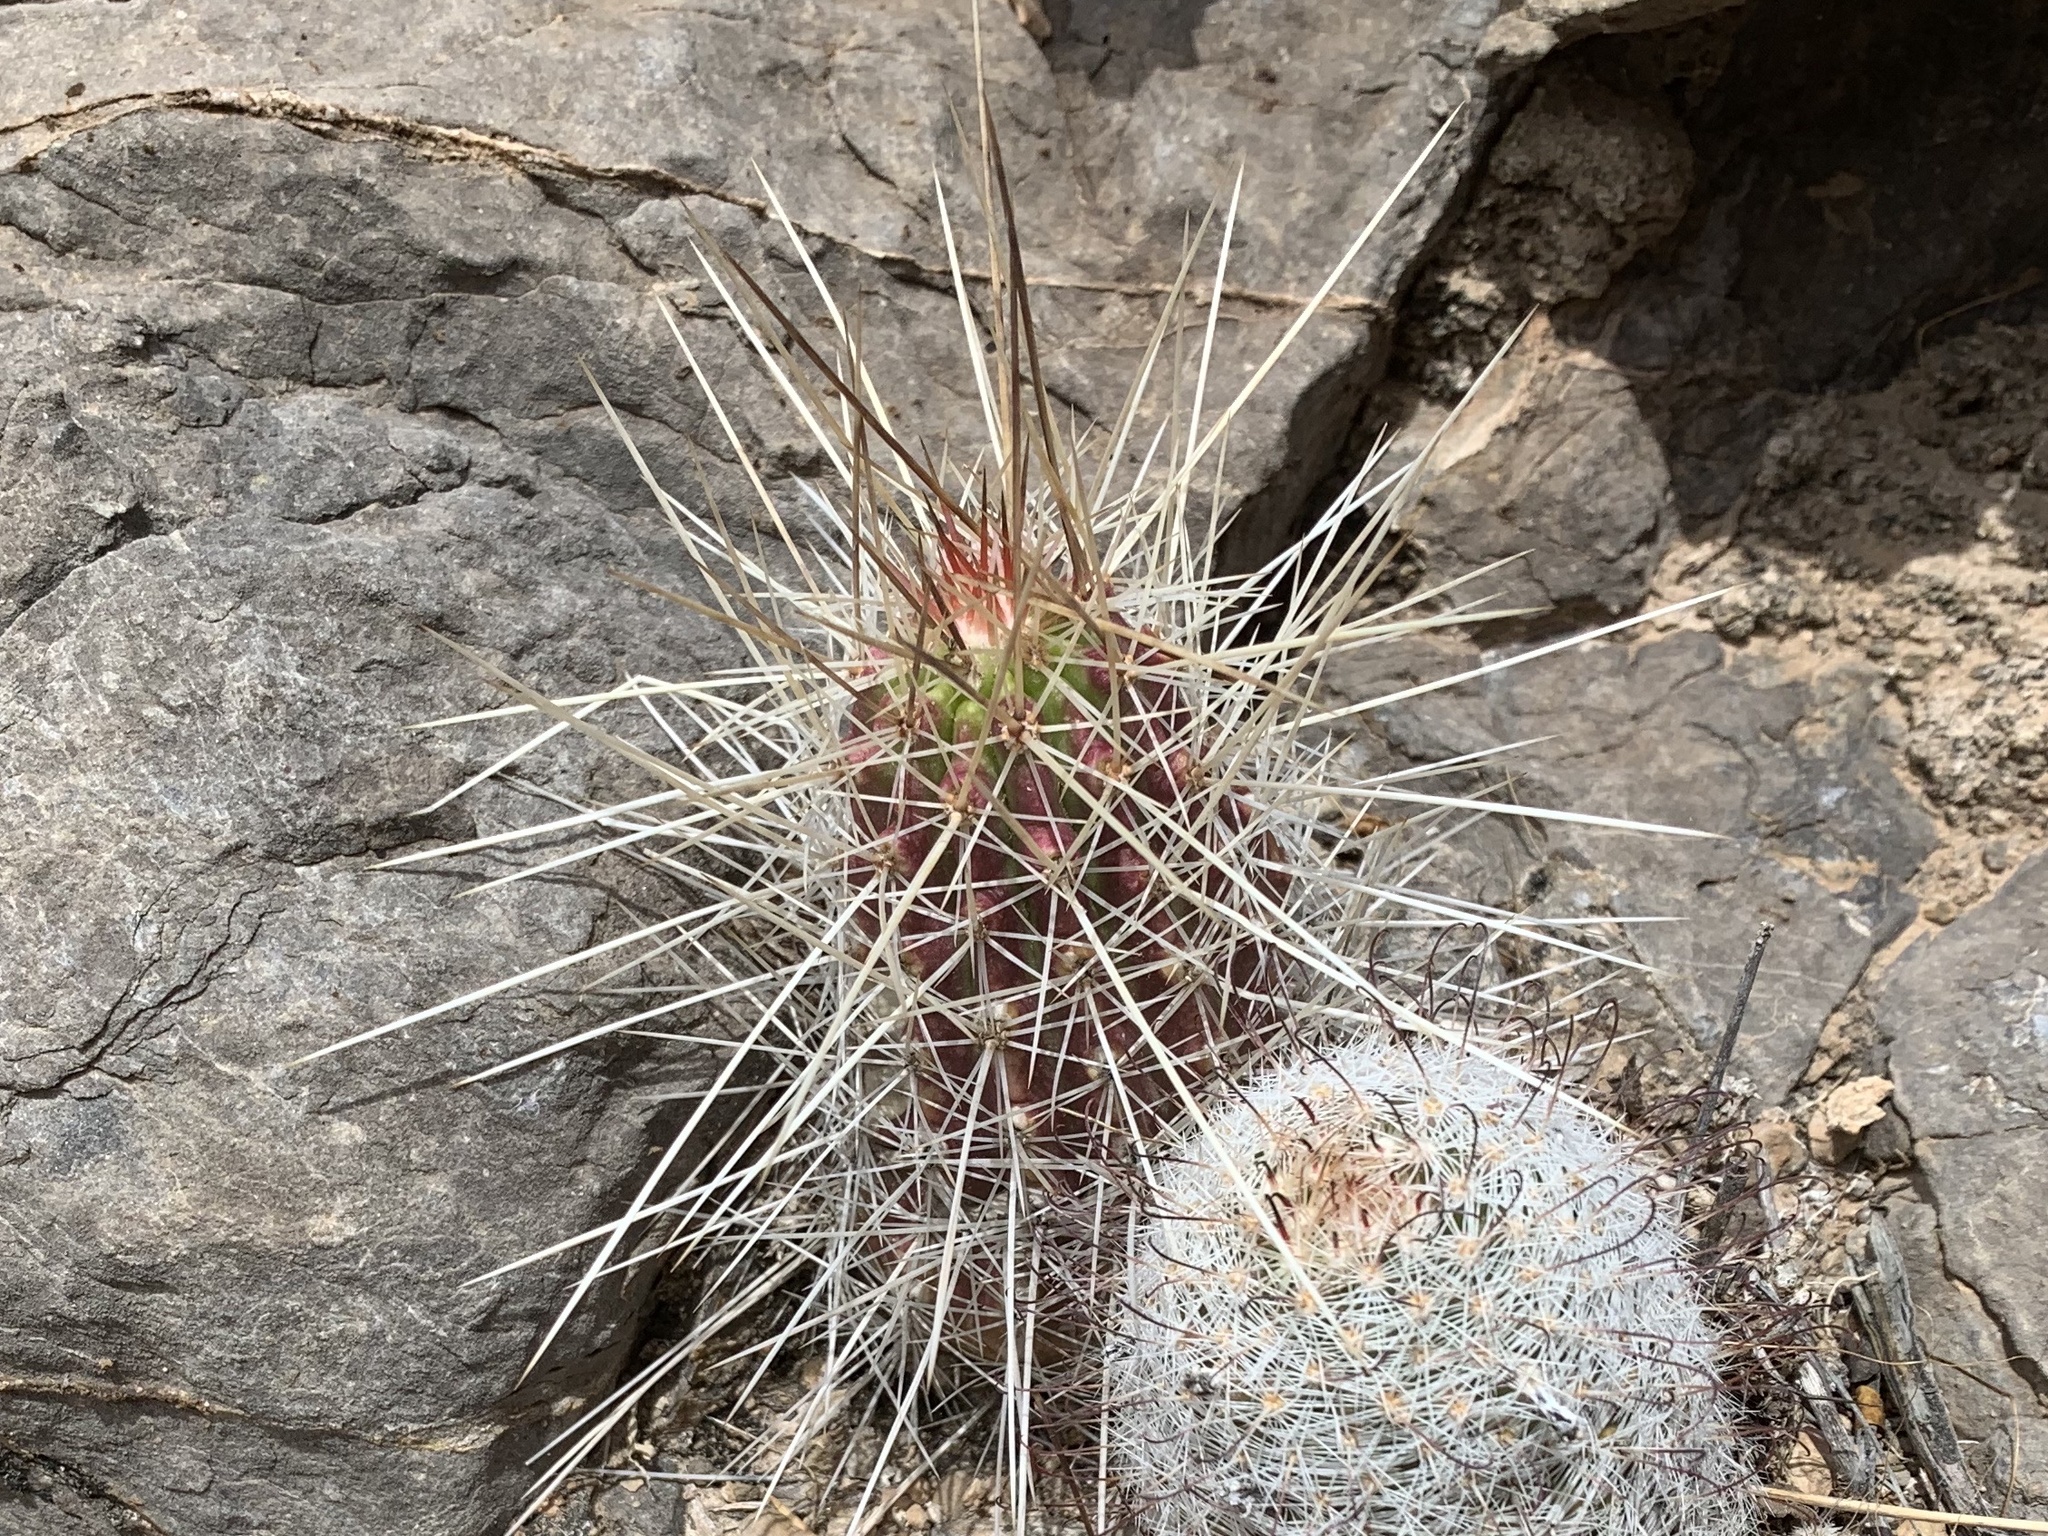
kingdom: Plantae
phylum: Tracheophyta
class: Magnoliopsida
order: Caryophyllales
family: Cactaceae
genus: Echinocereus
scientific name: Echinocereus stramineus
